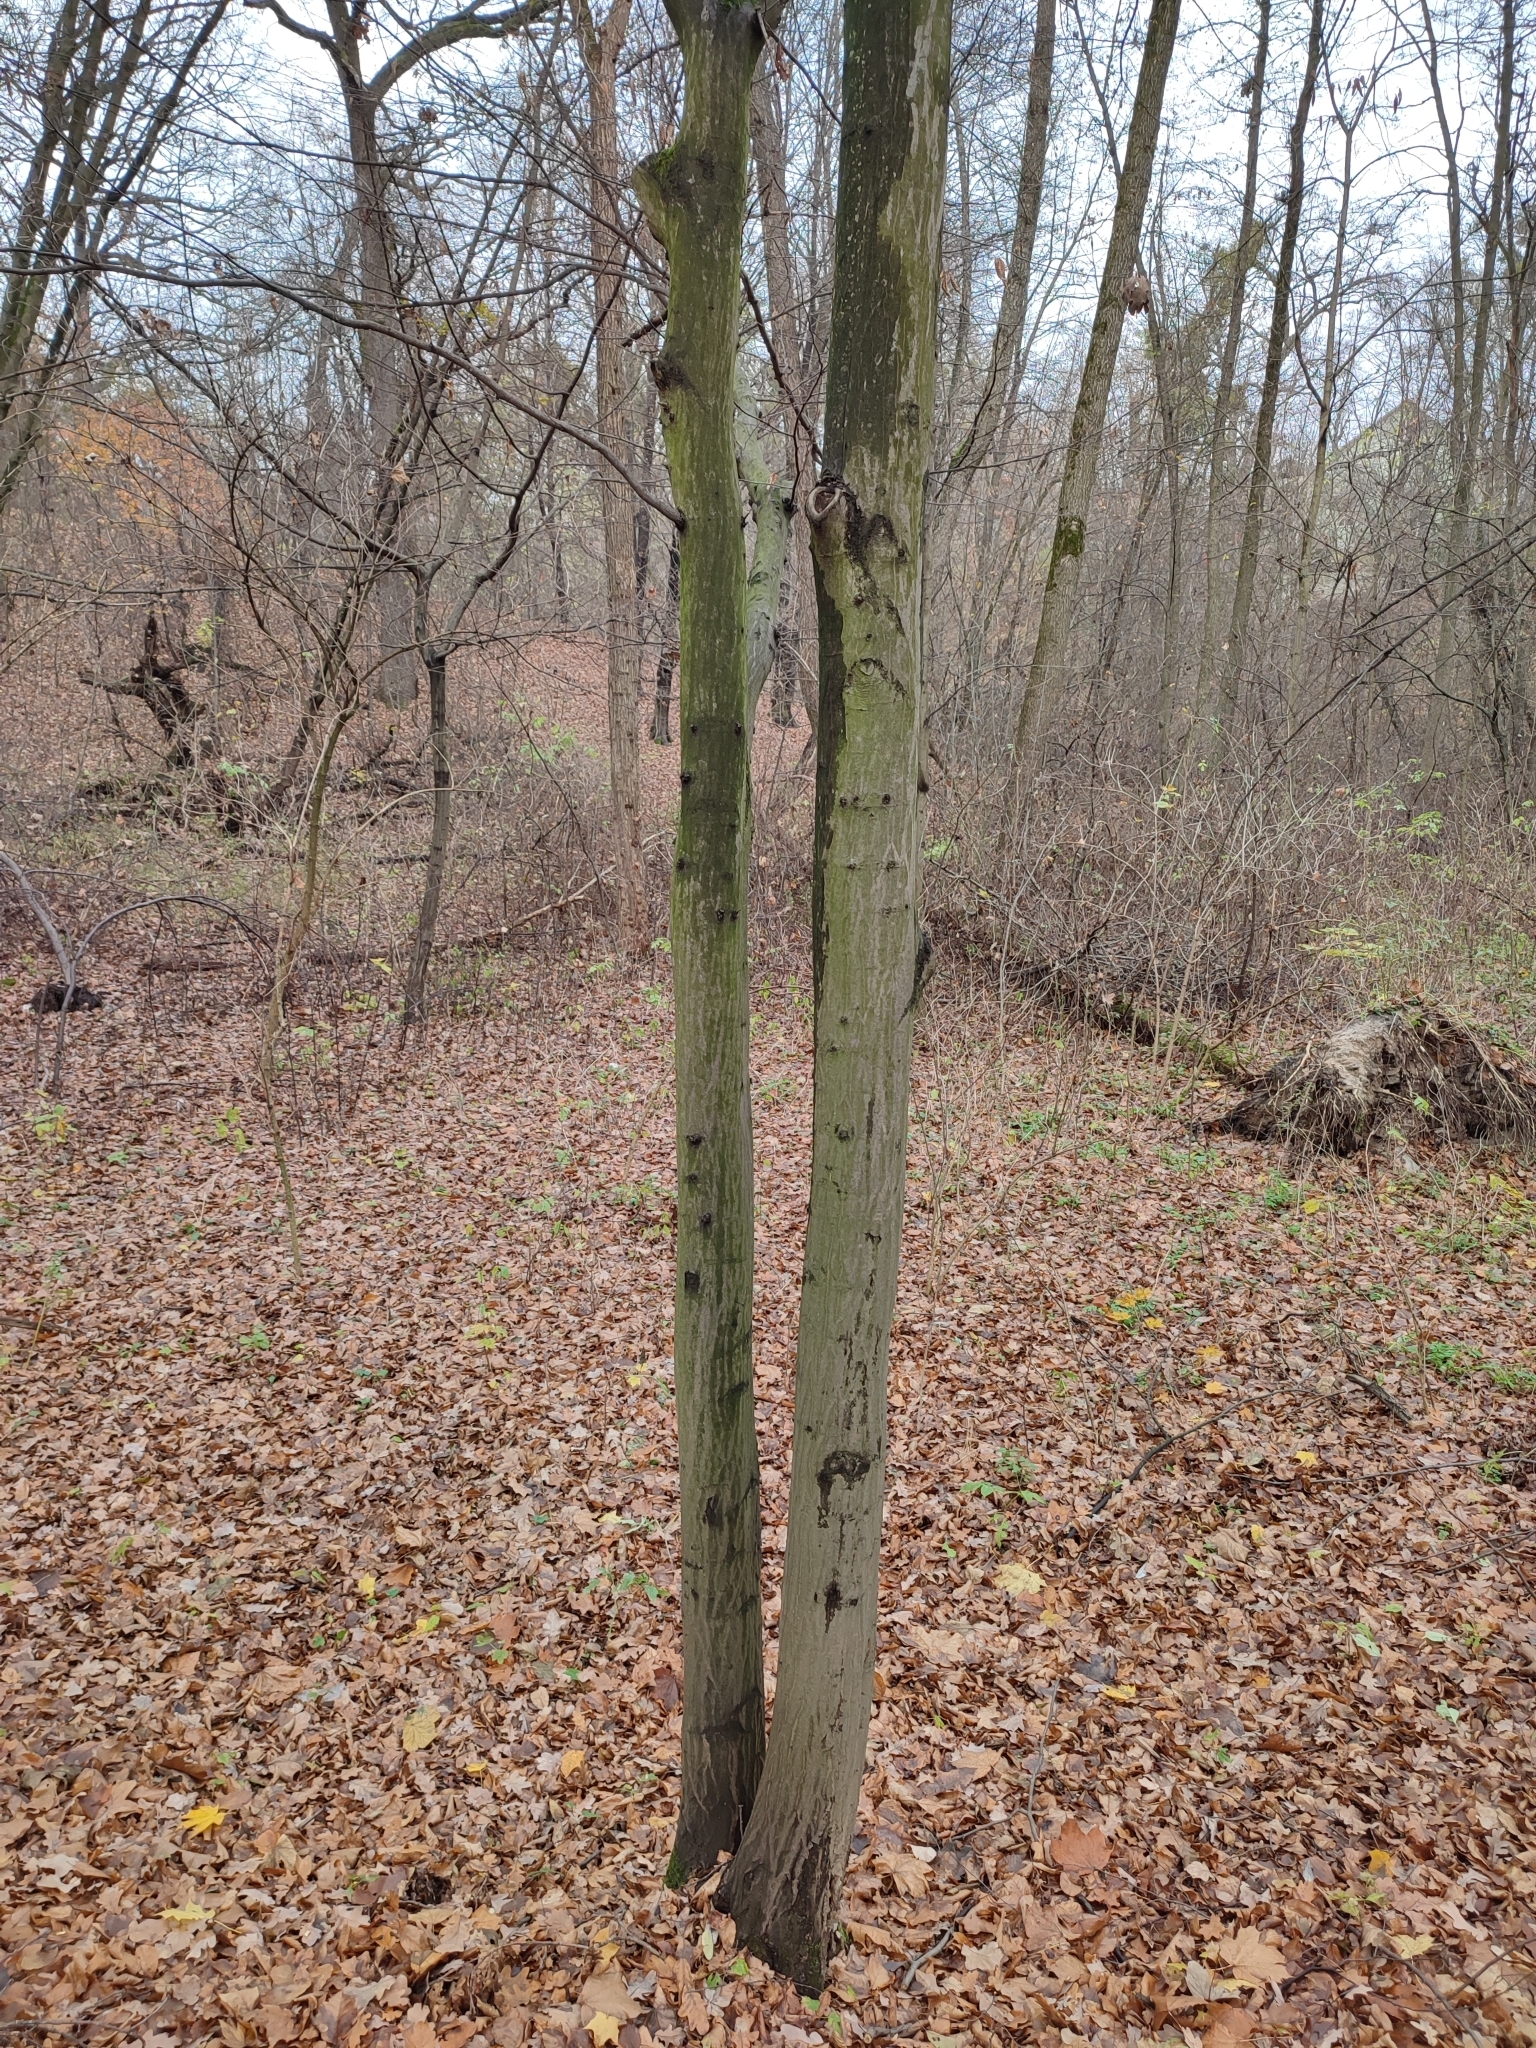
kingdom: Plantae
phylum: Tracheophyta
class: Magnoliopsida
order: Fagales
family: Betulaceae
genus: Carpinus
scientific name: Carpinus betulus
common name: Hornbeam
